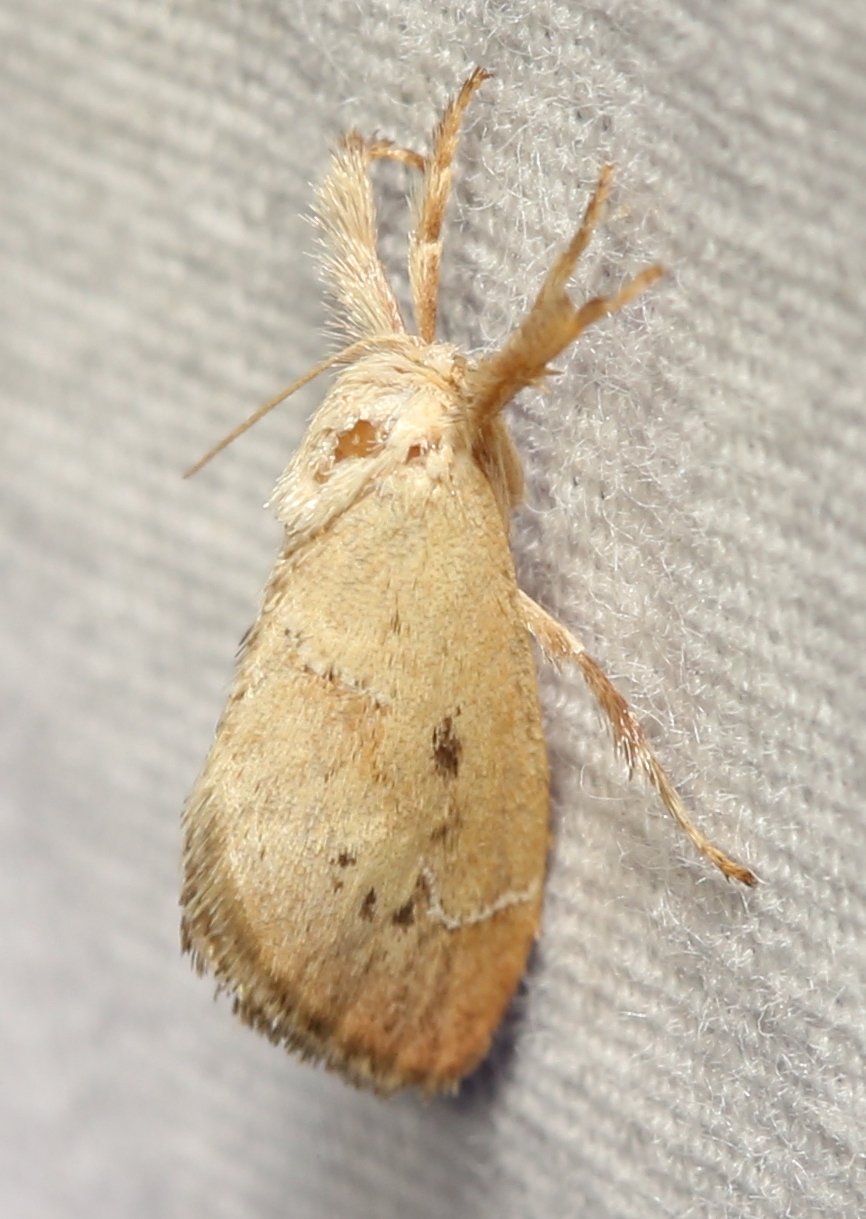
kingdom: Animalia
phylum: Arthropoda
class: Insecta
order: Lepidoptera
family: Limacodidae
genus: Adoneta
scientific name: Adoneta bicaudata
